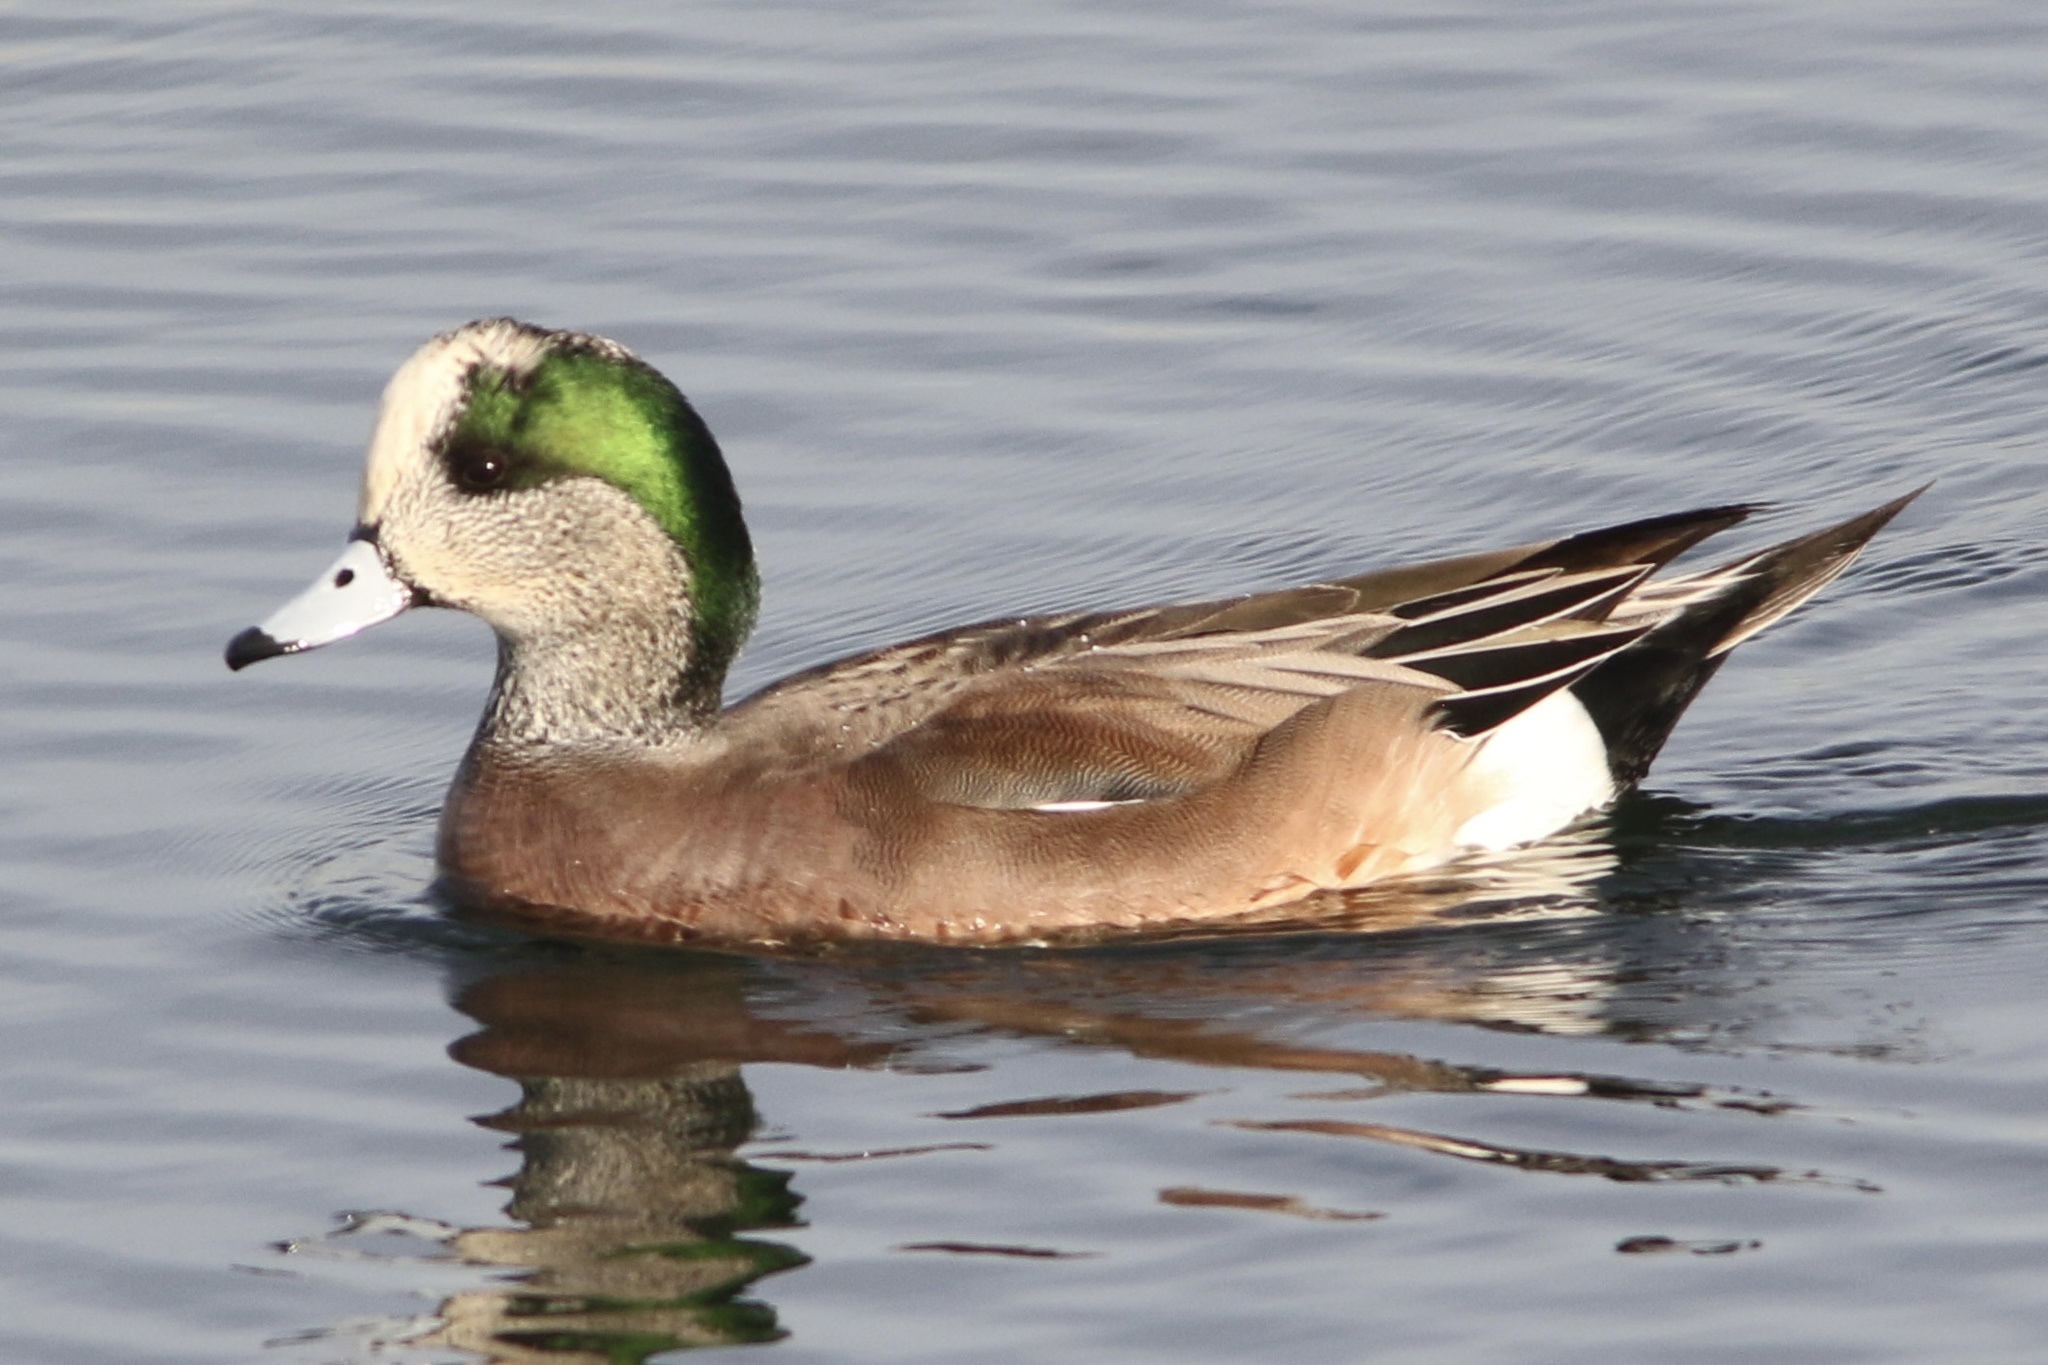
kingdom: Animalia
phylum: Chordata
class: Aves
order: Anseriformes
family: Anatidae
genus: Mareca
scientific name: Mareca americana
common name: American wigeon
